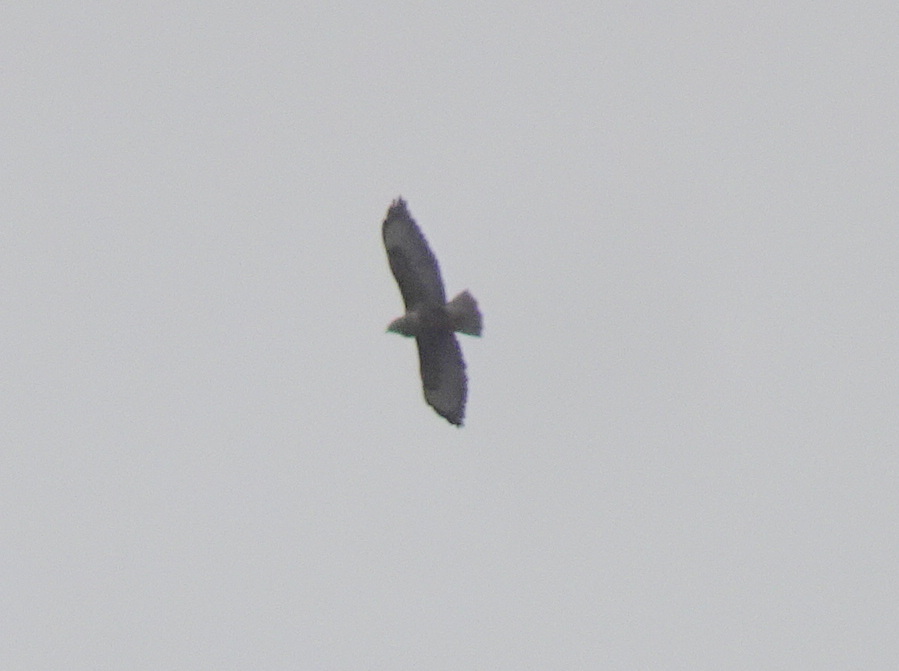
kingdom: Animalia
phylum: Chordata
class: Aves
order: Accipitriformes
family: Accipitridae
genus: Buteo
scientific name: Buteo buteo
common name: Common buzzard
